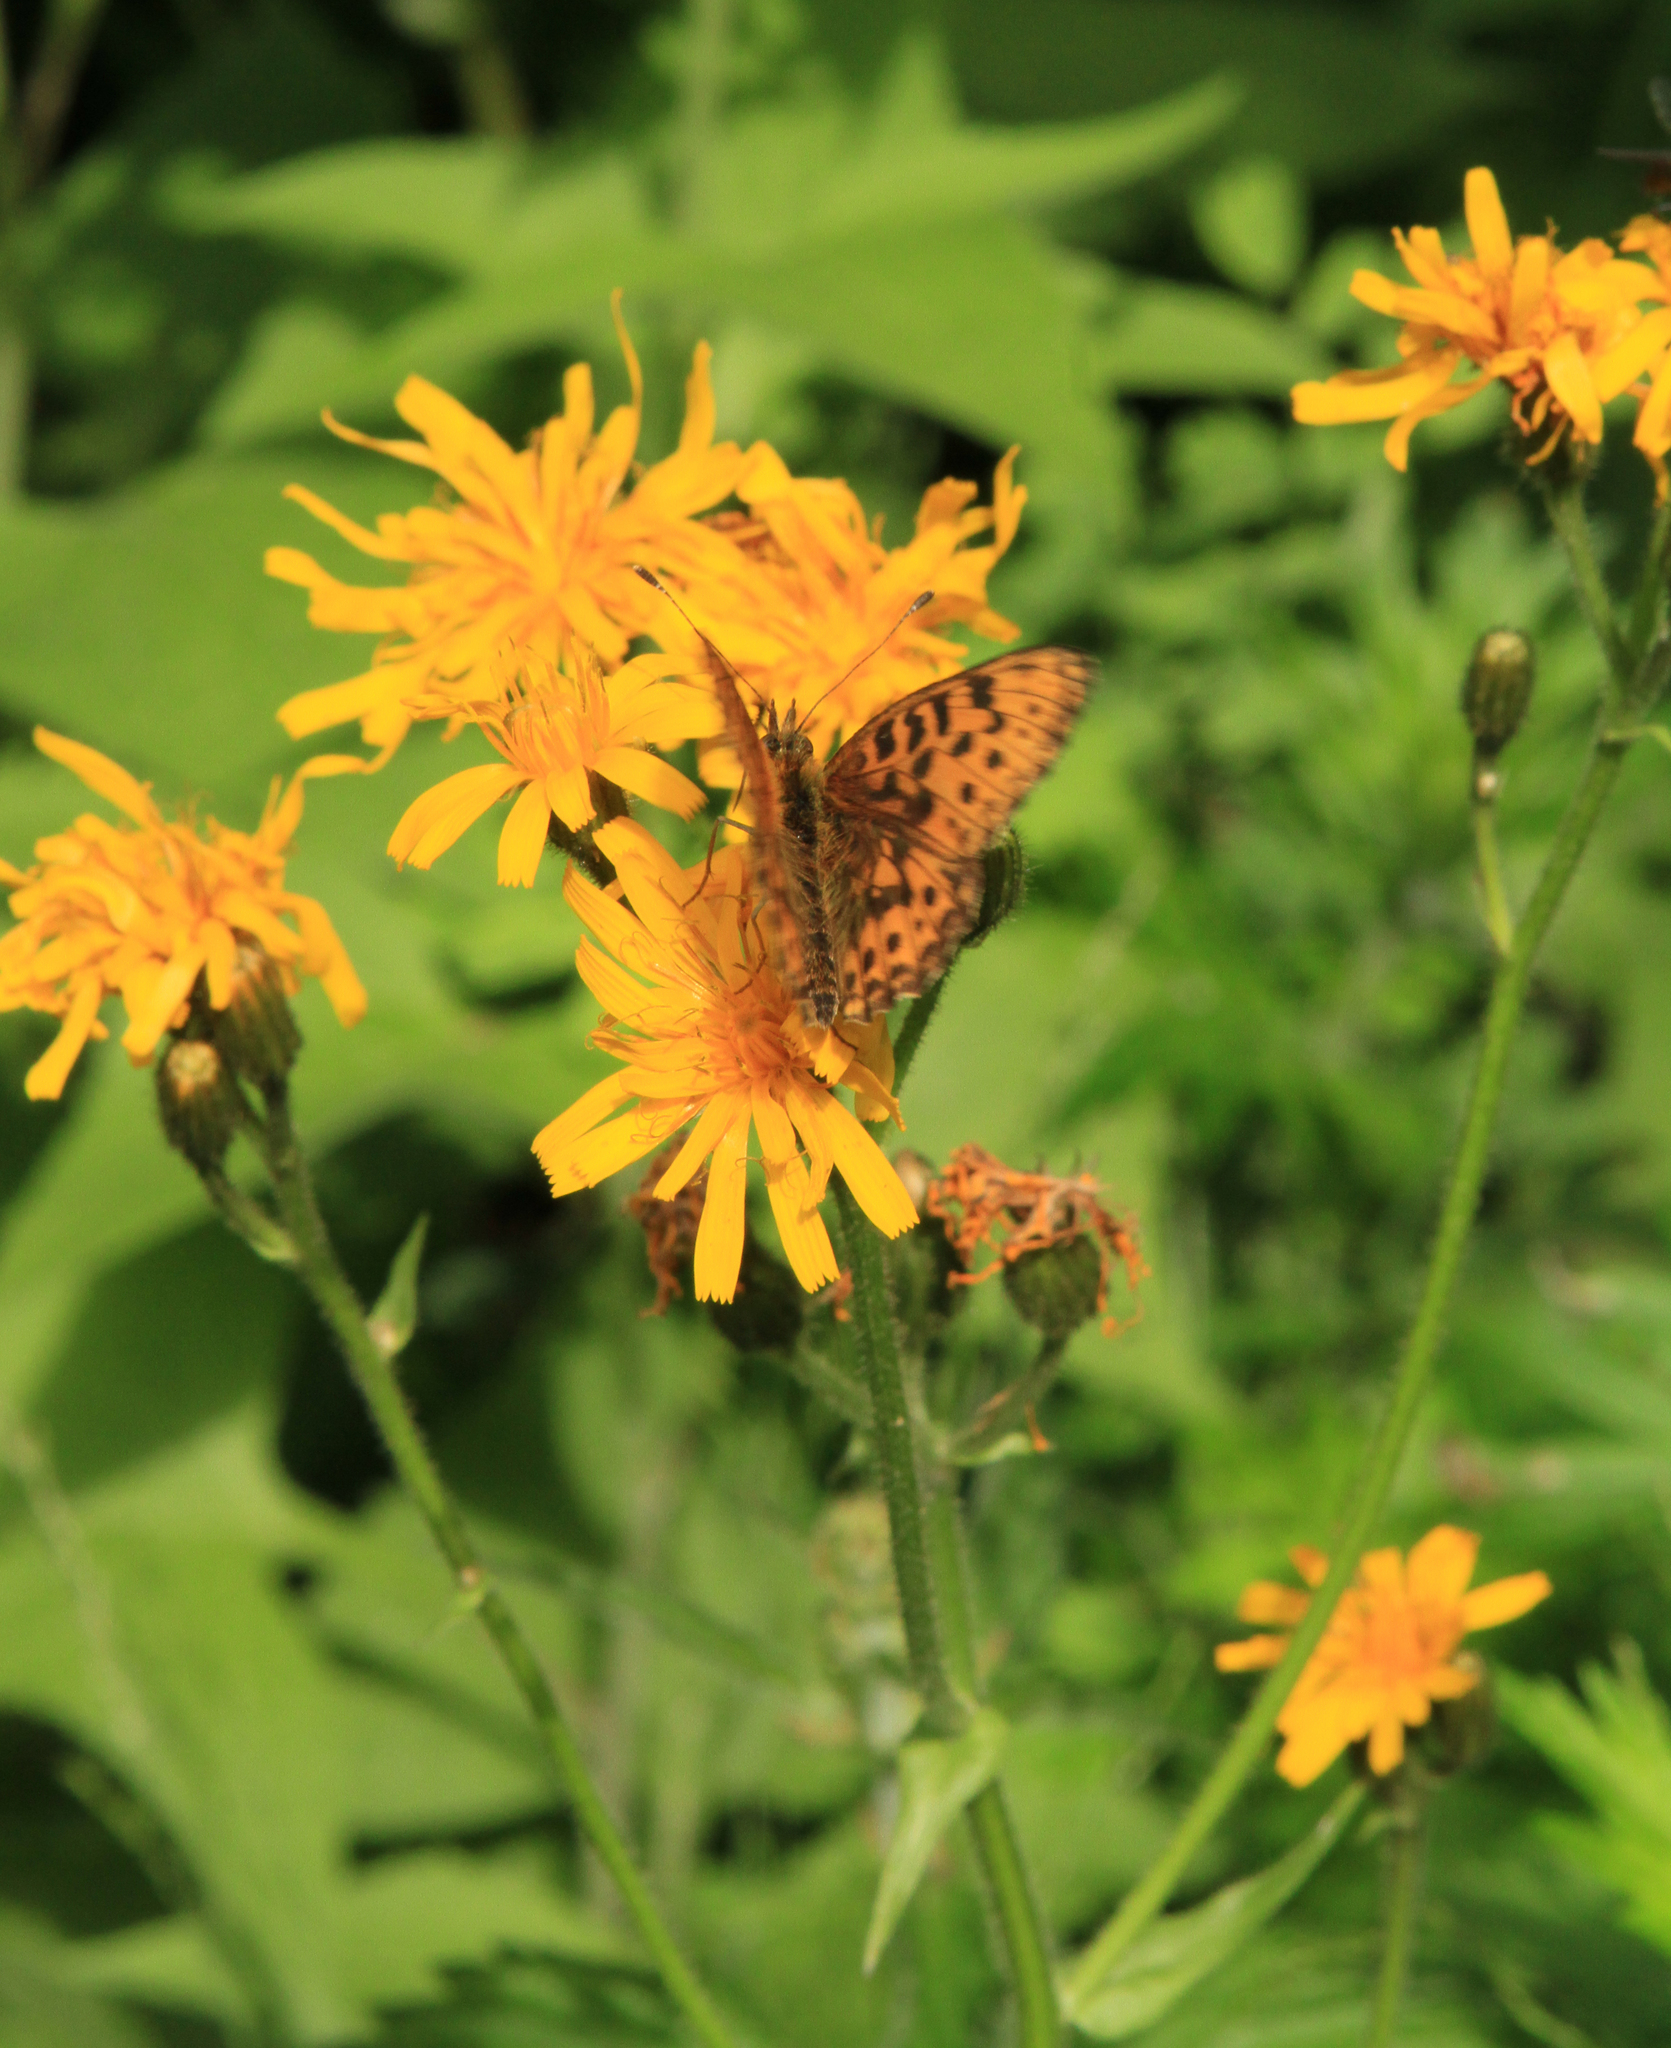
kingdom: Plantae
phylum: Tracheophyta
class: Magnoliopsida
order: Asterales
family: Asteraceae
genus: Crepis
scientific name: Crepis lyrata
